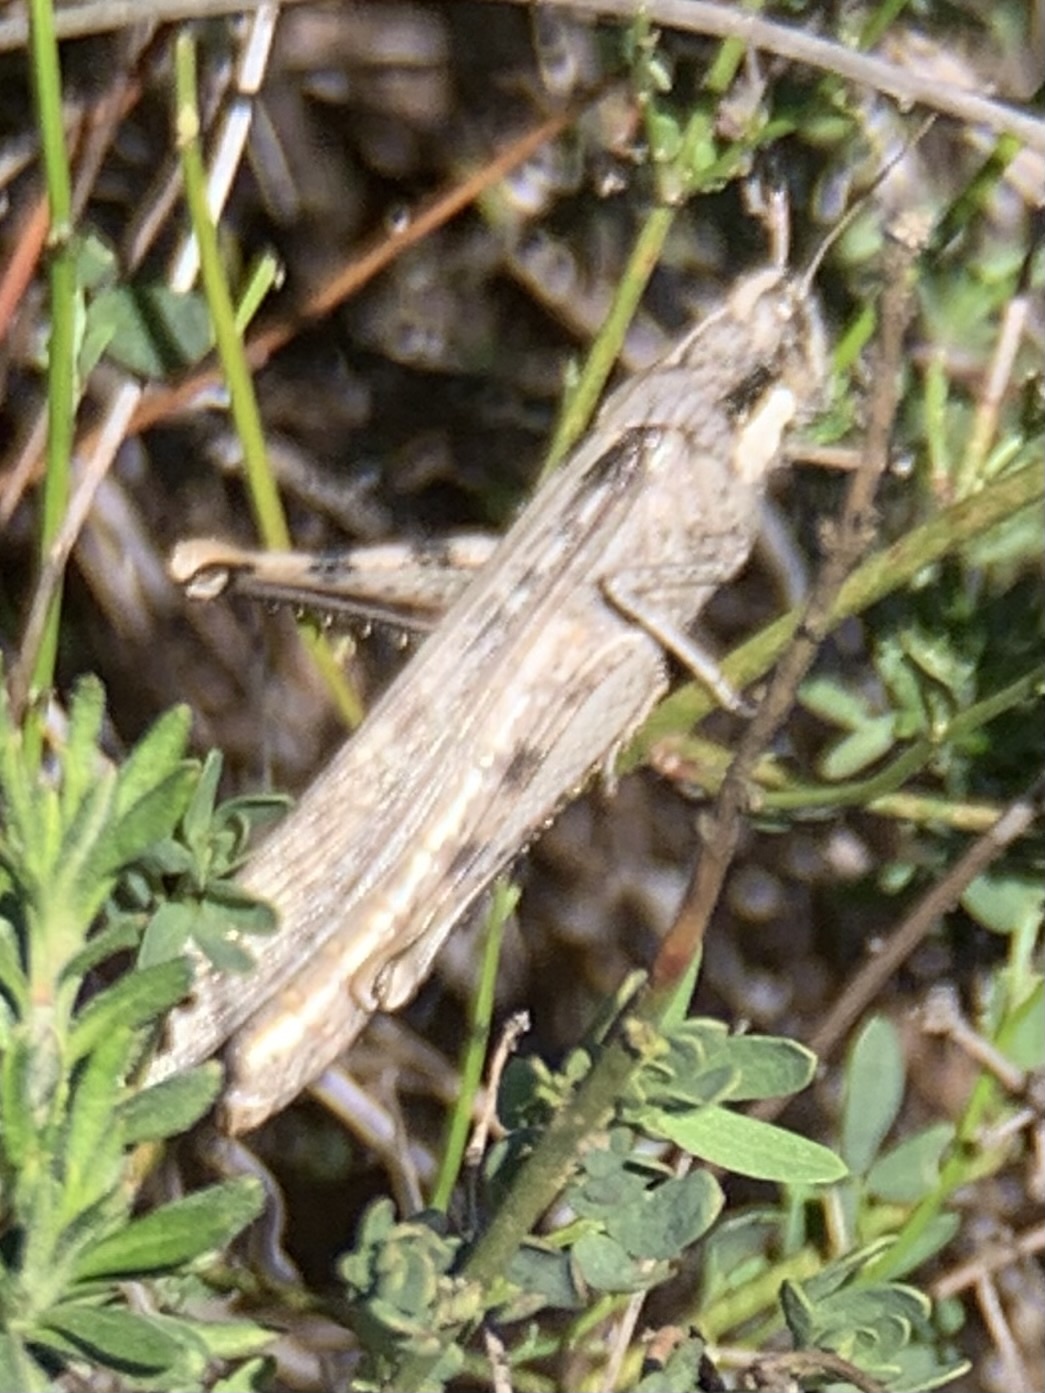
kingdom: Animalia
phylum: Arthropoda
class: Insecta
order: Orthoptera
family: Acrididae
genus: Schistocerca
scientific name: Schistocerca nitens
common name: Vagrant grasshopper
